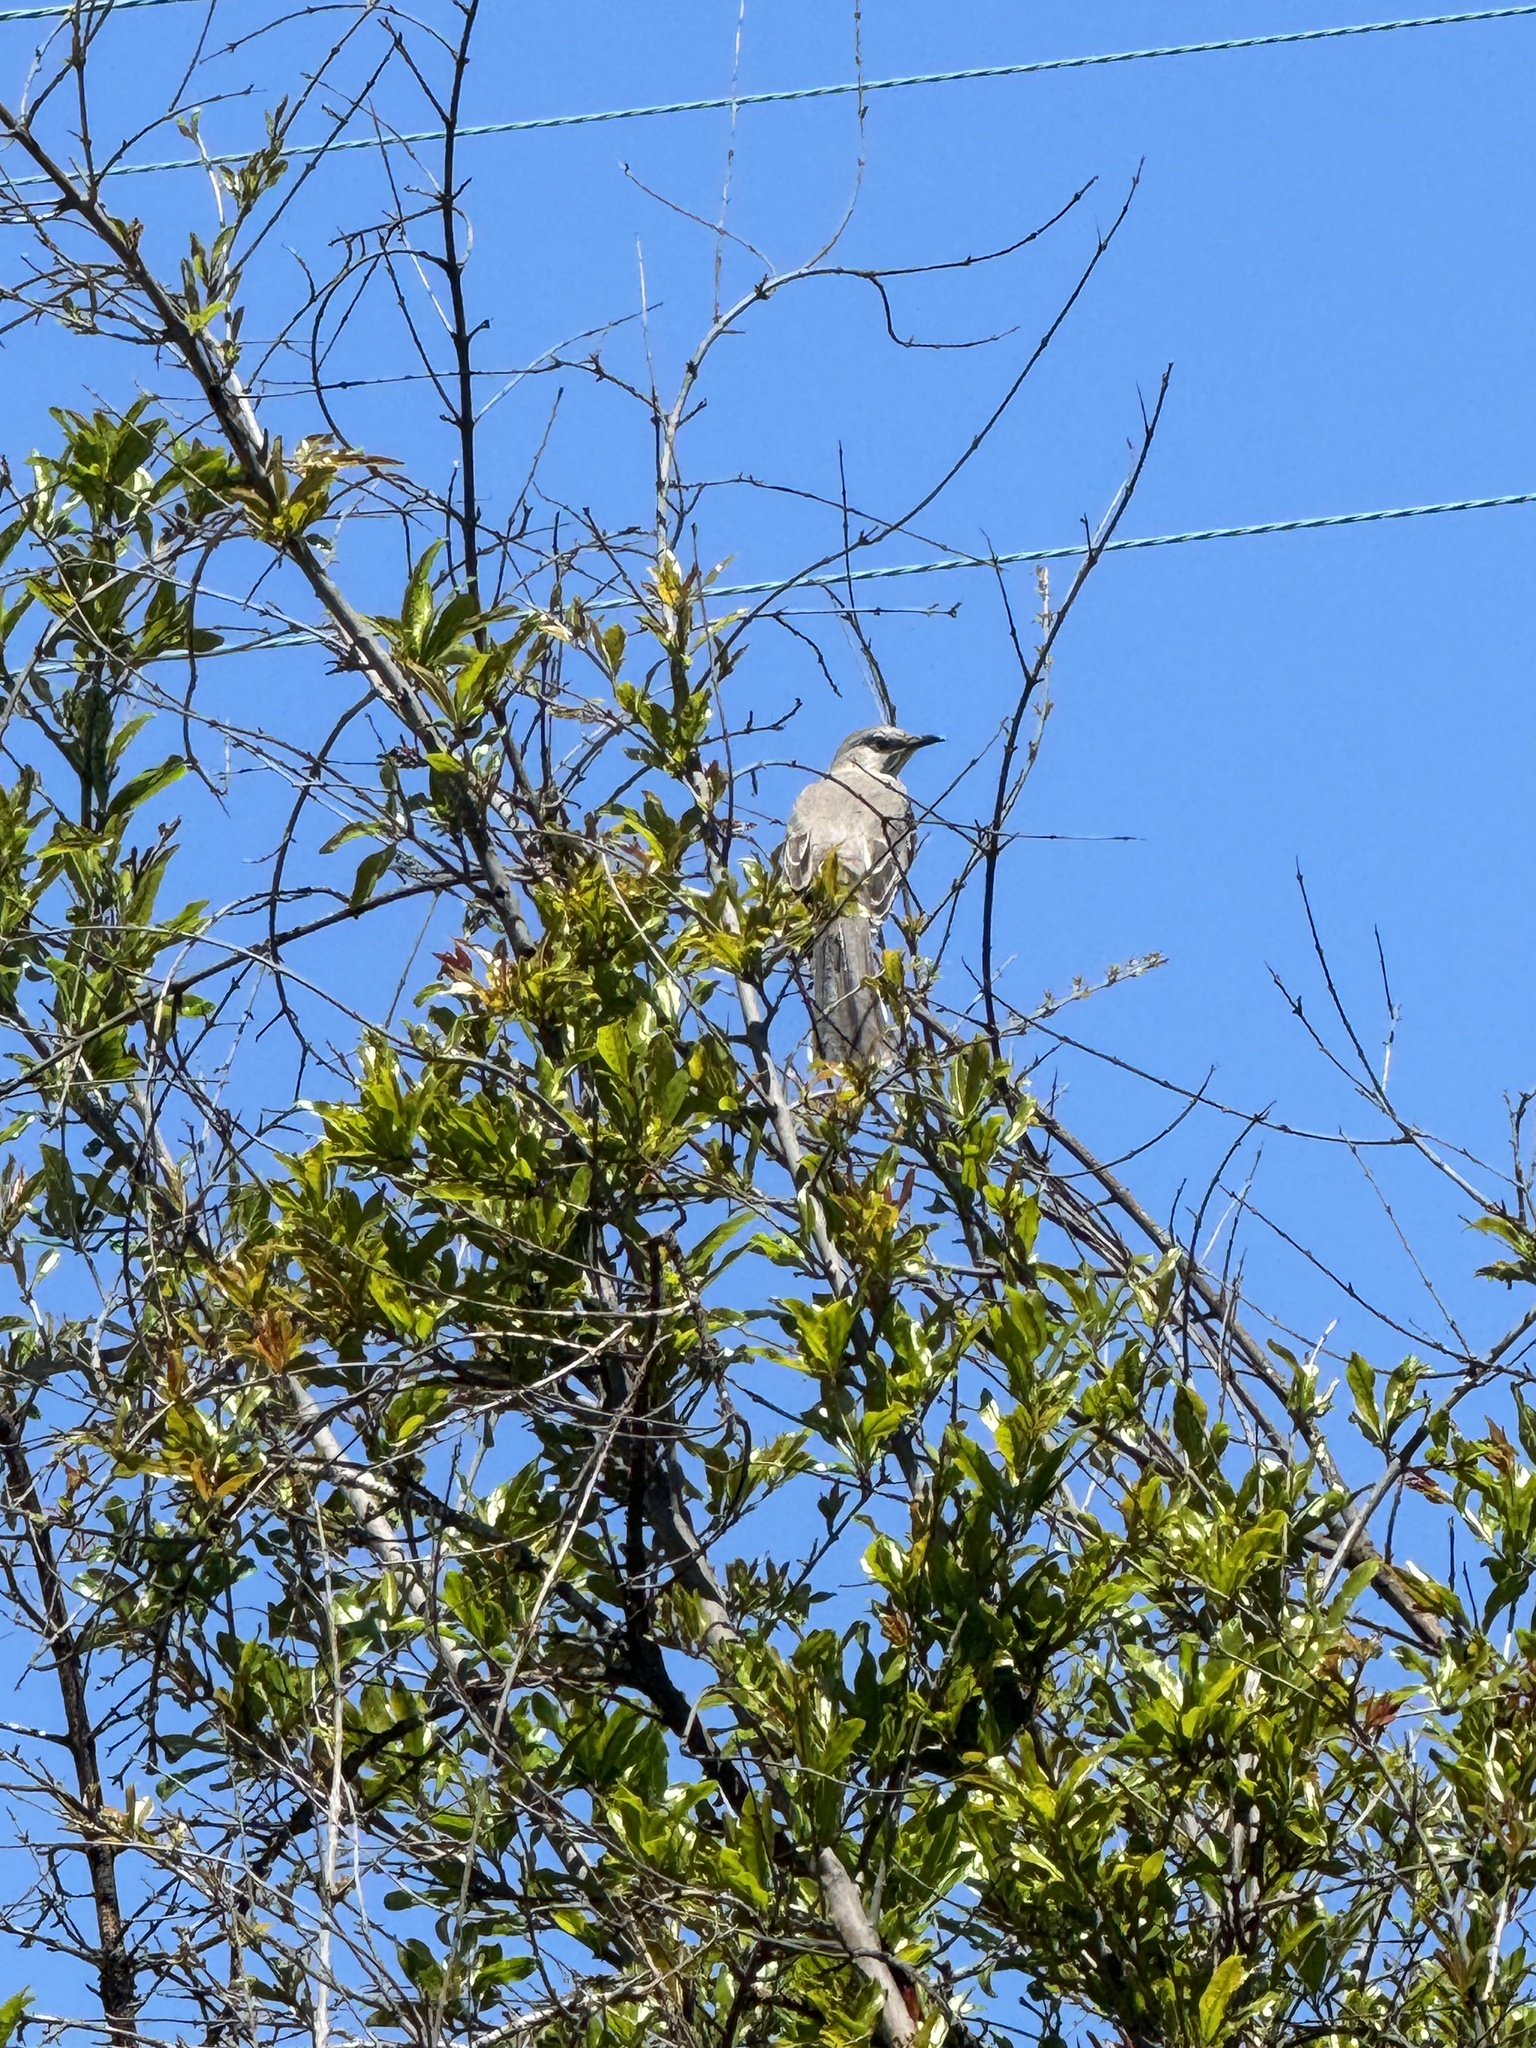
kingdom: Animalia
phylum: Chordata
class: Aves
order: Passeriformes
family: Mimidae
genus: Mimus
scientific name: Mimus polyglottos
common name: Northern mockingbird
